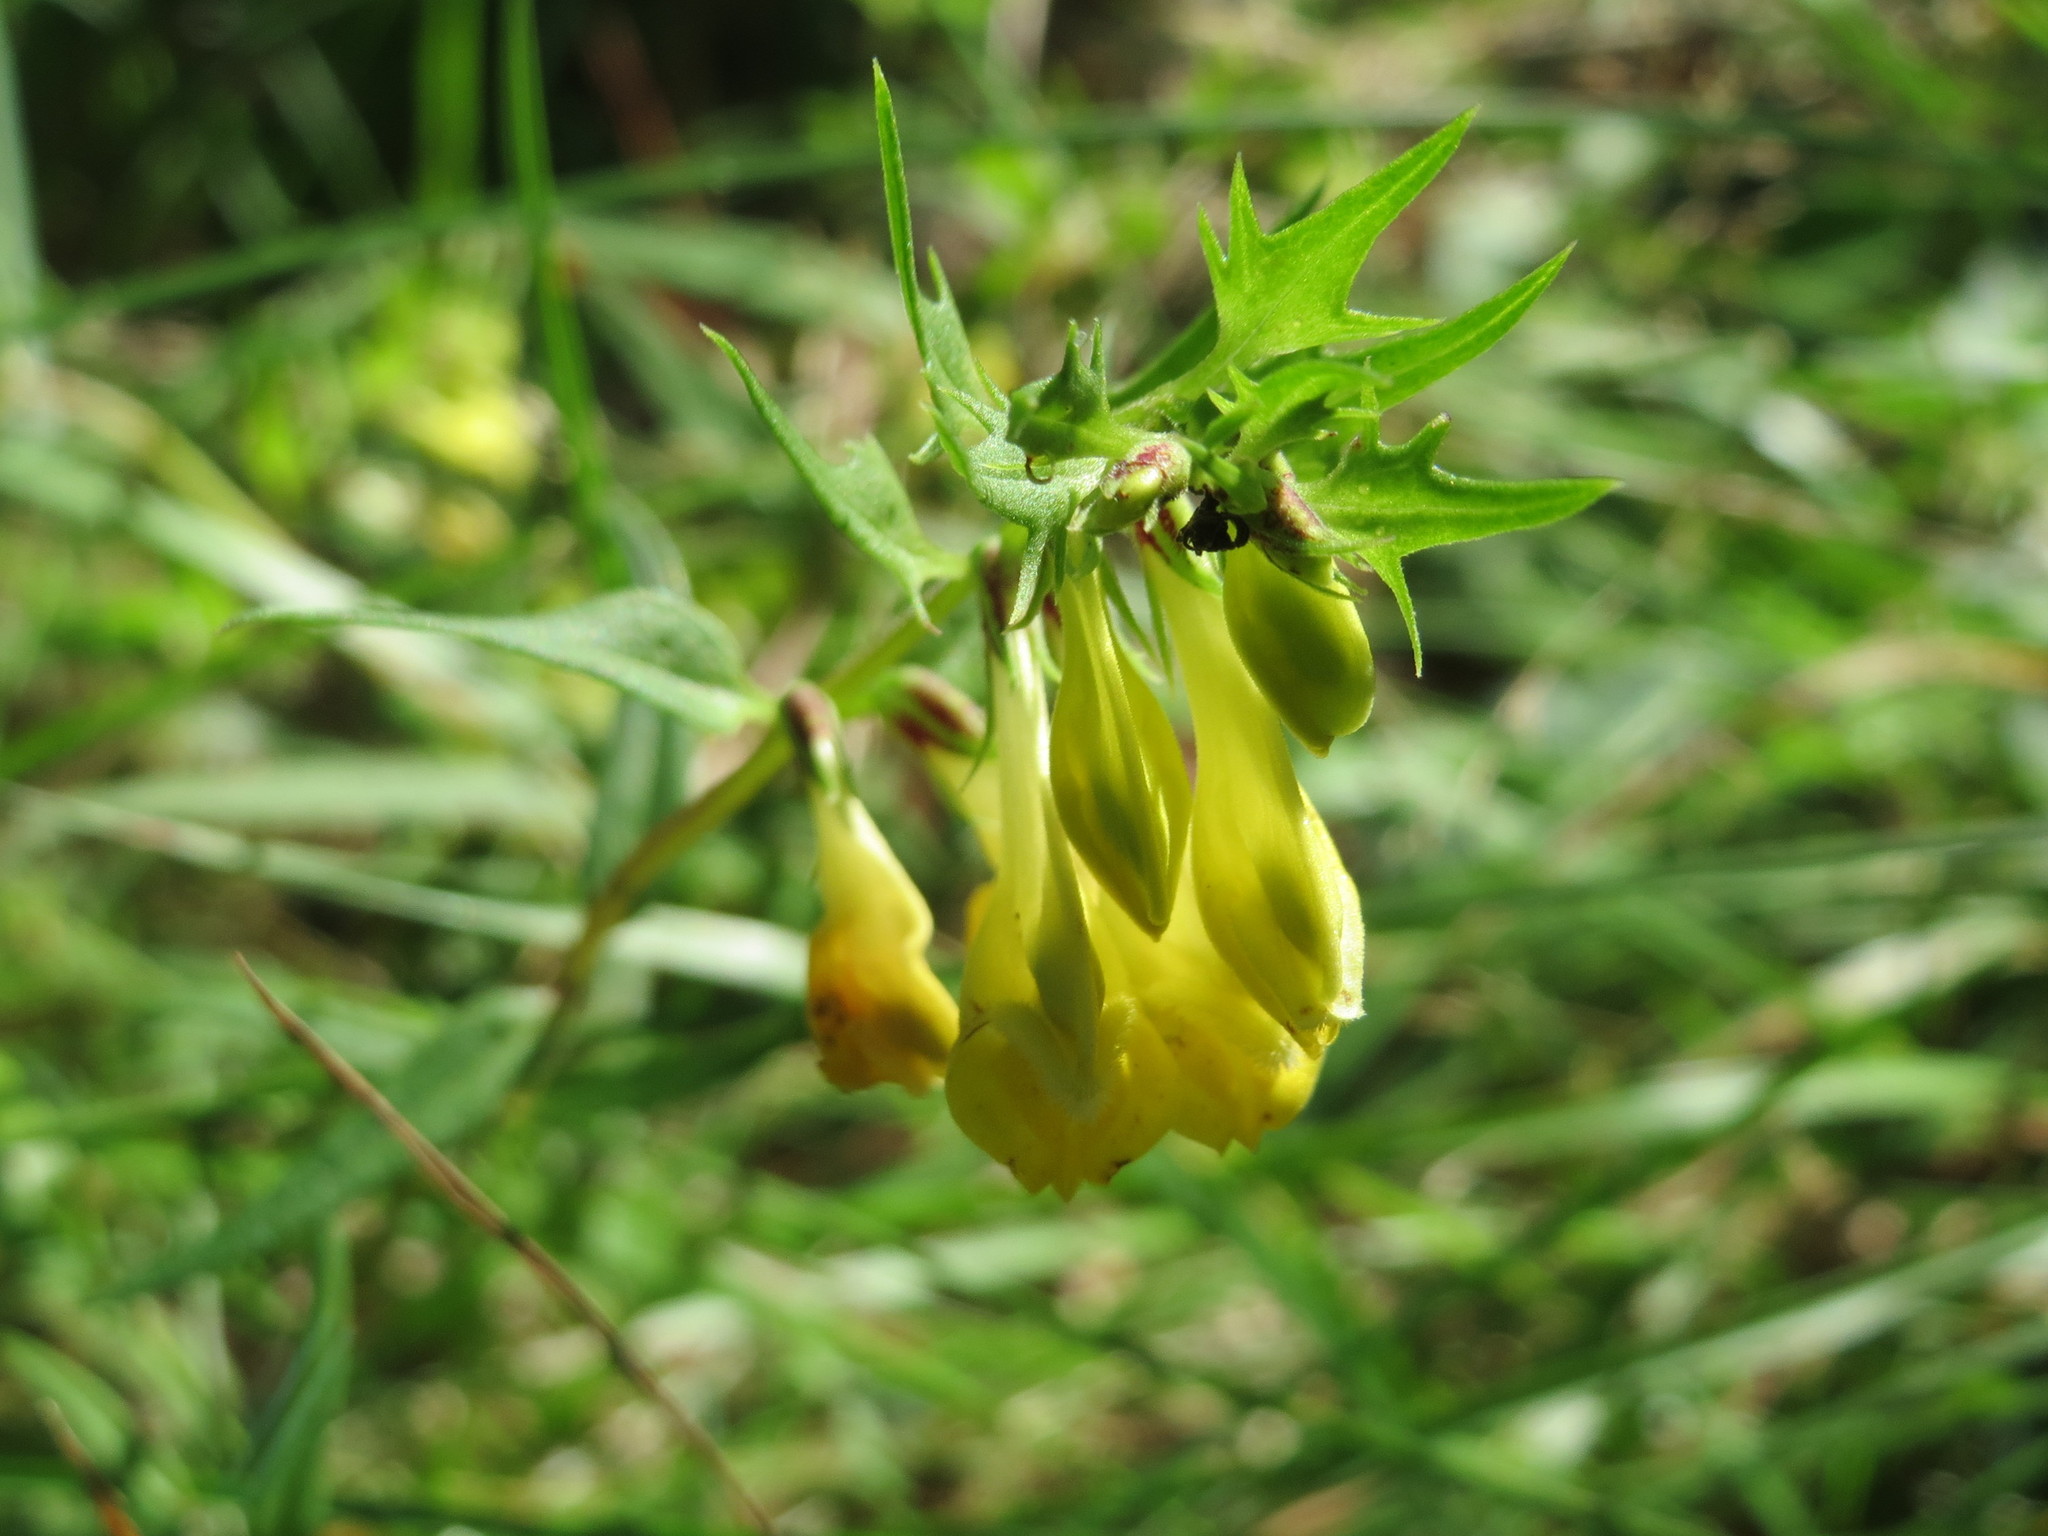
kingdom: Plantae
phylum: Tracheophyta
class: Magnoliopsida
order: Lamiales
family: Orobanchaceae
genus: Melampyrum
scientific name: Melampyrum pratense
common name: Common cow-wheat
